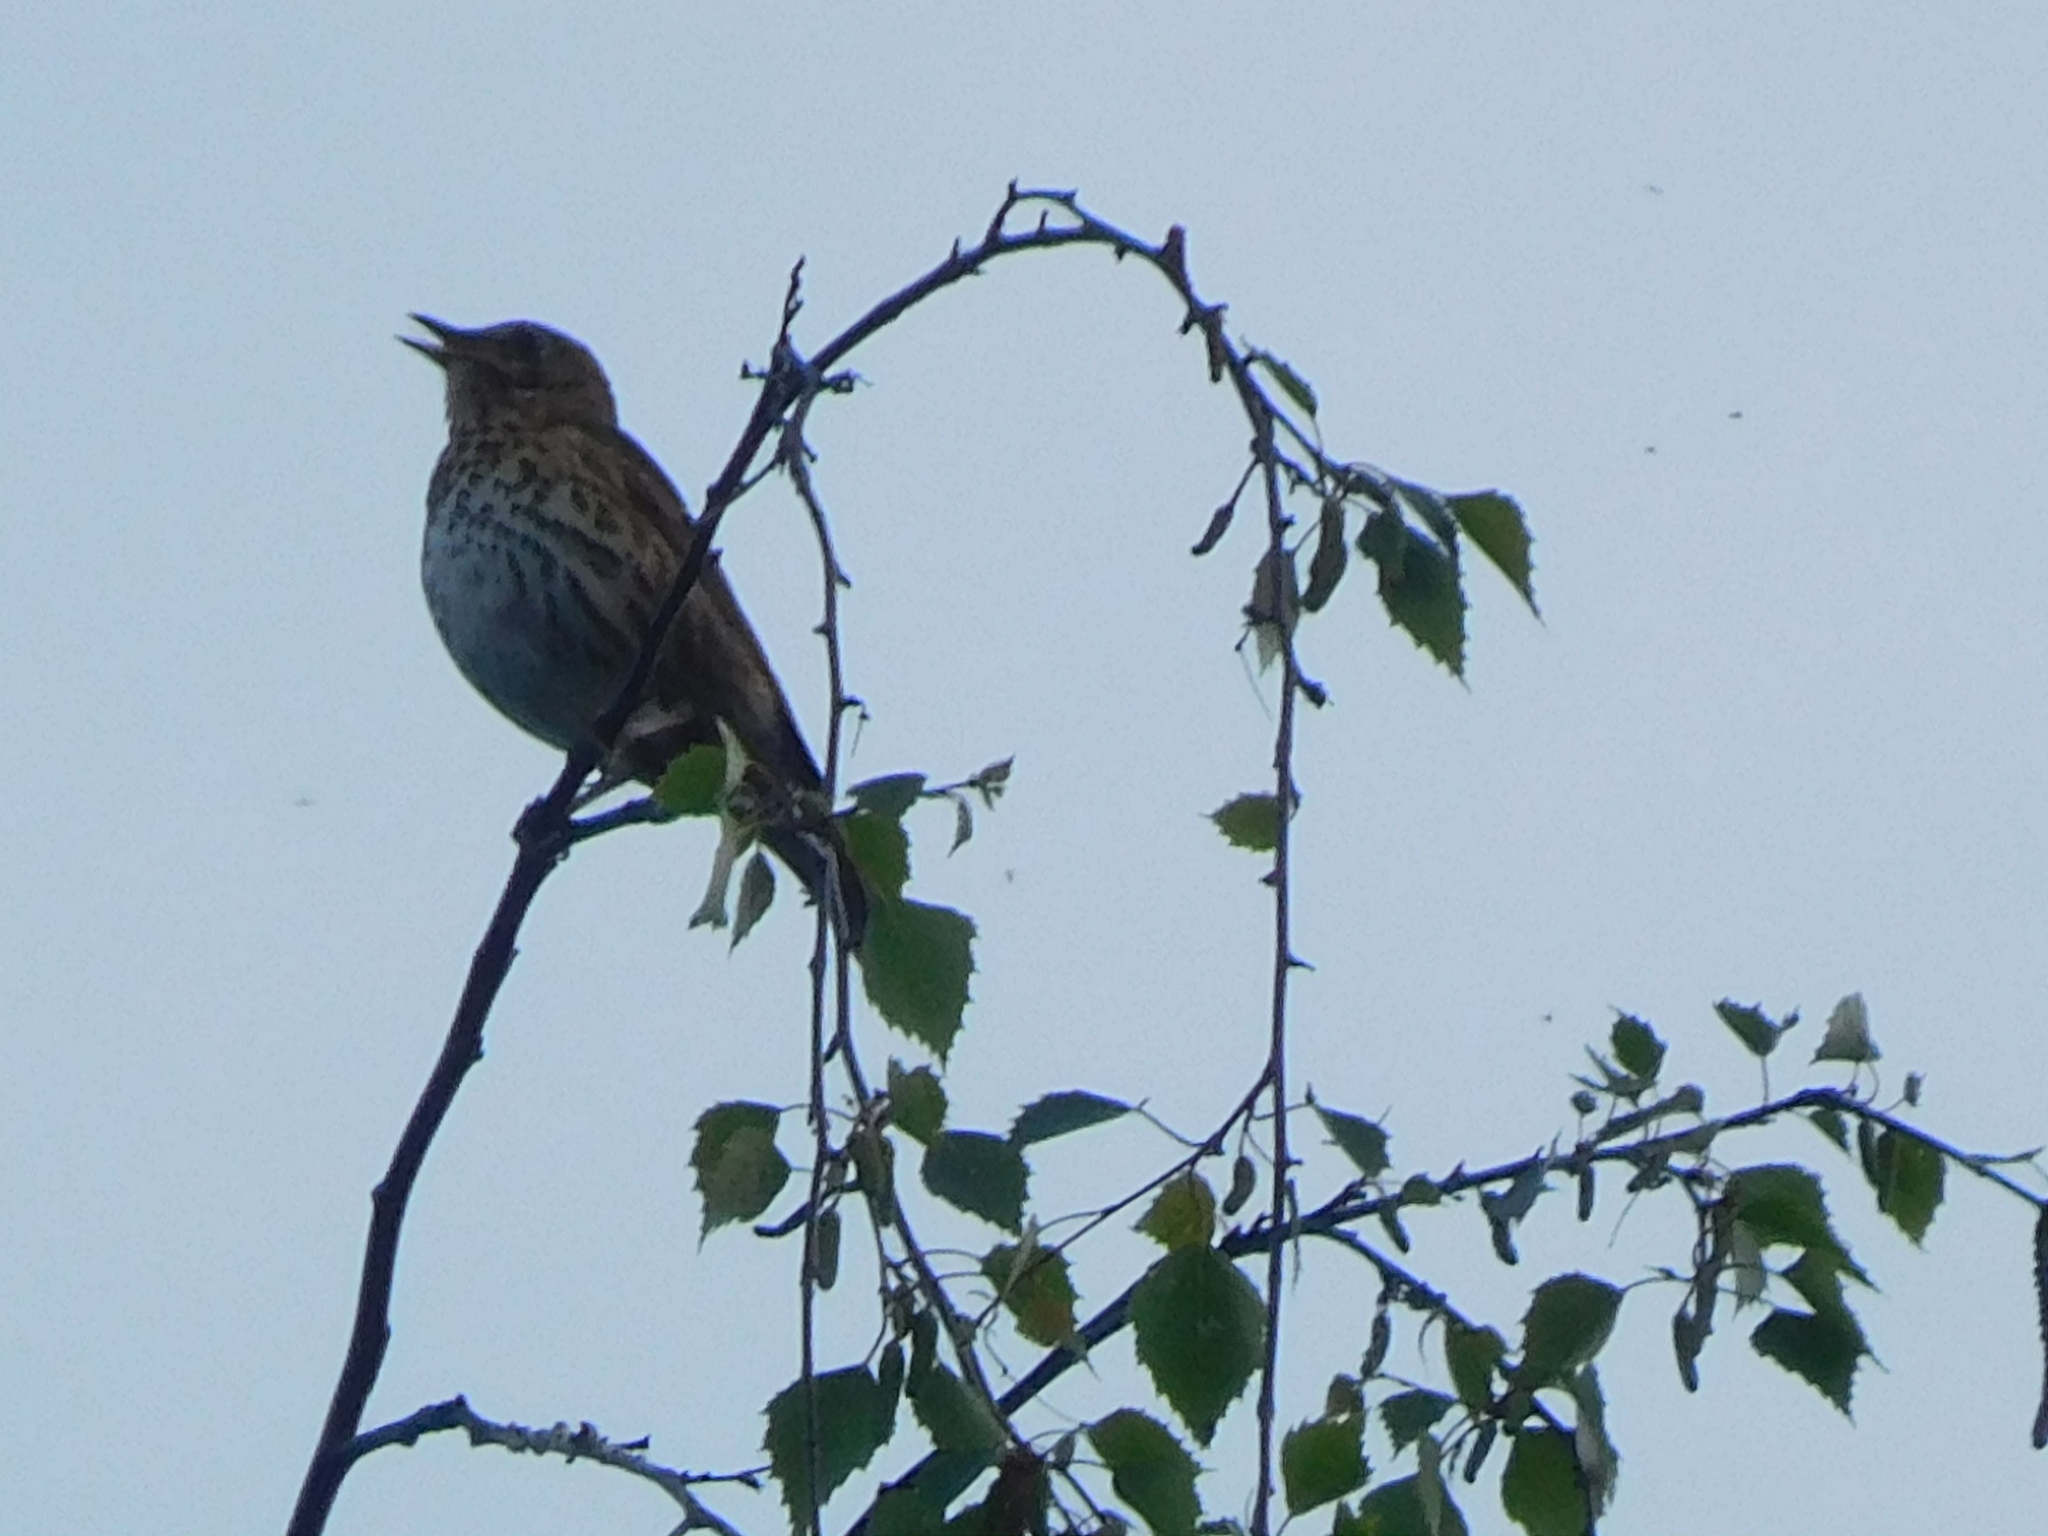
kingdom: Animalia
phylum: Chordata
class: Aves
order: Passeriformes
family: Turdidae
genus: Turdus
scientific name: Turdus philomelos
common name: Song thrush
